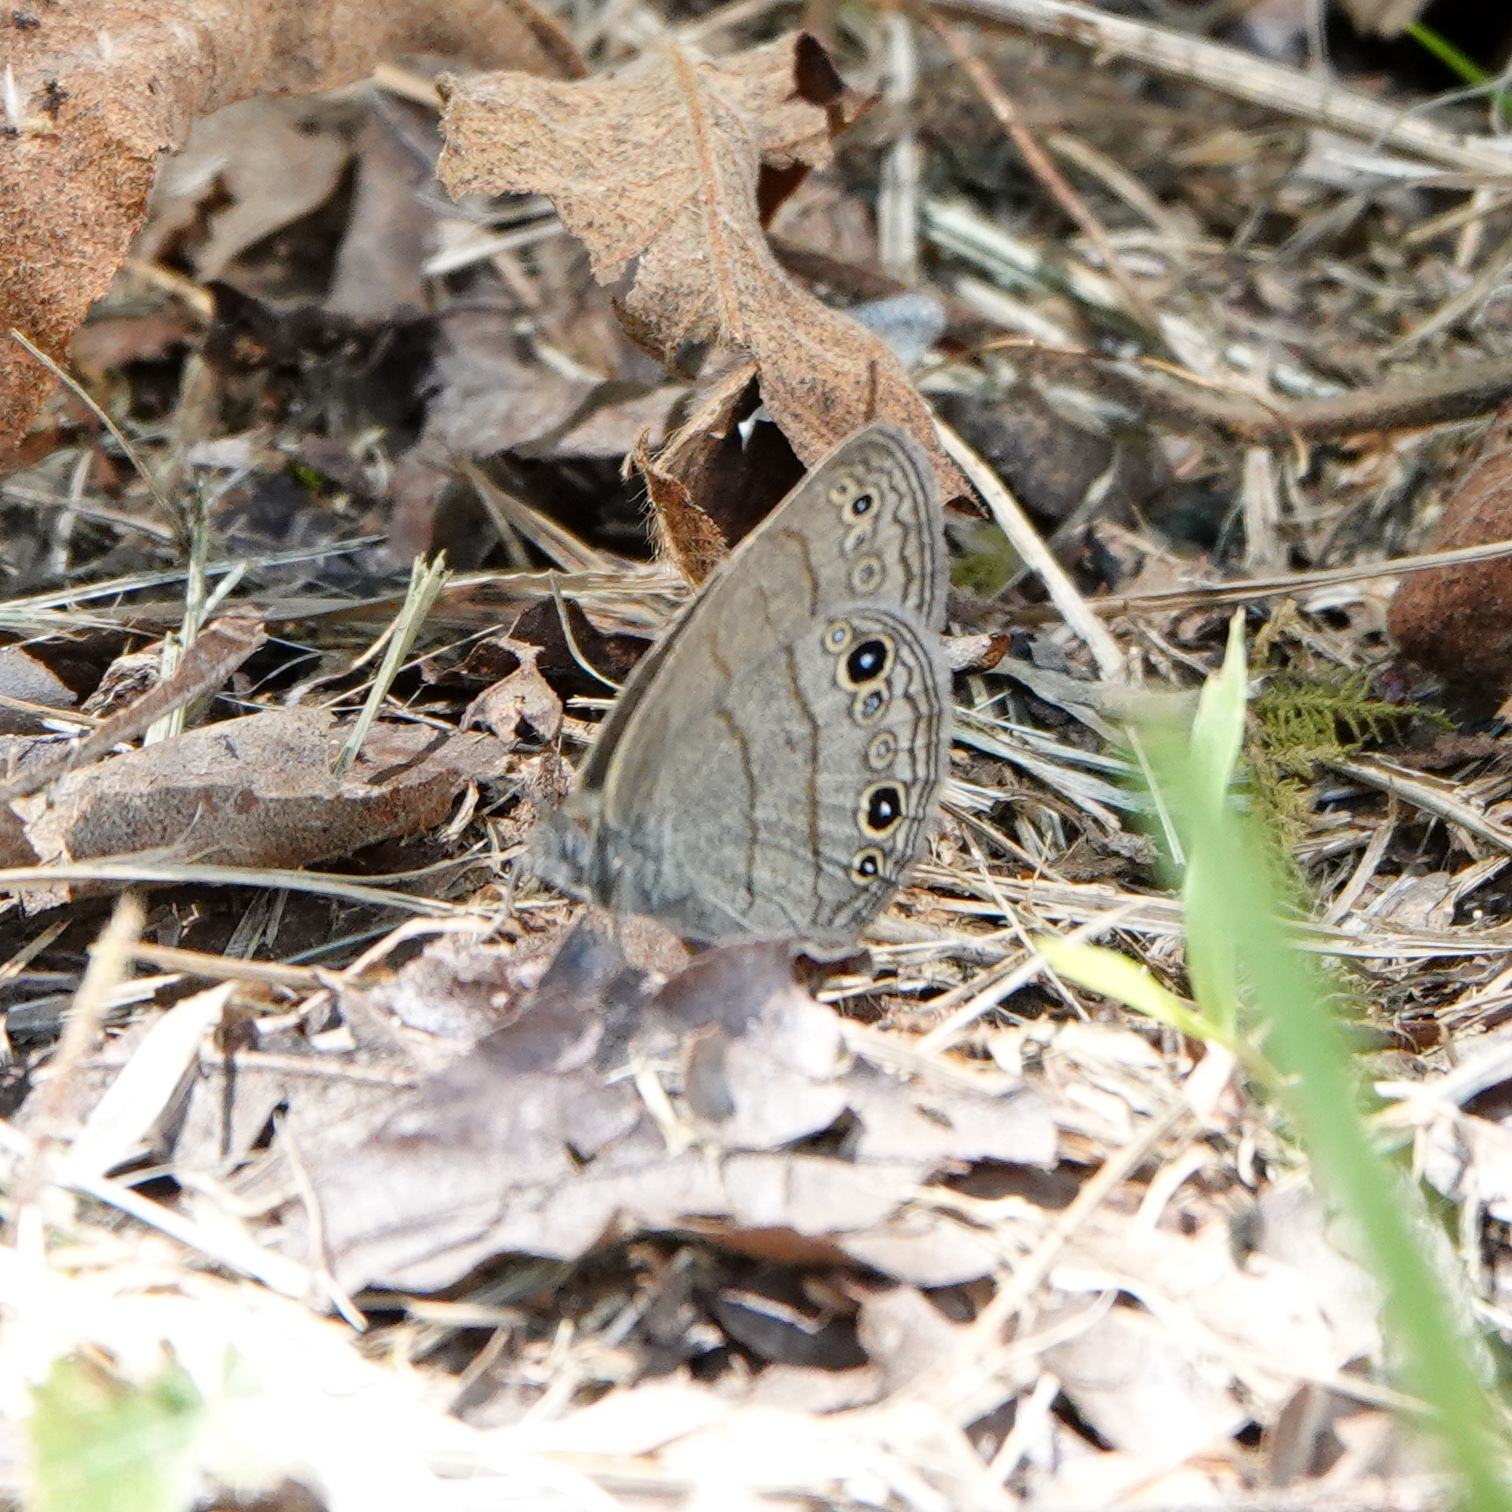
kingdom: Animalia
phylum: Arthropoda
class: Insecta
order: Lepidoptera
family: Nymphalidae
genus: Hermeuptychia
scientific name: Hermeuptychia hermes
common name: Hermes satyr
